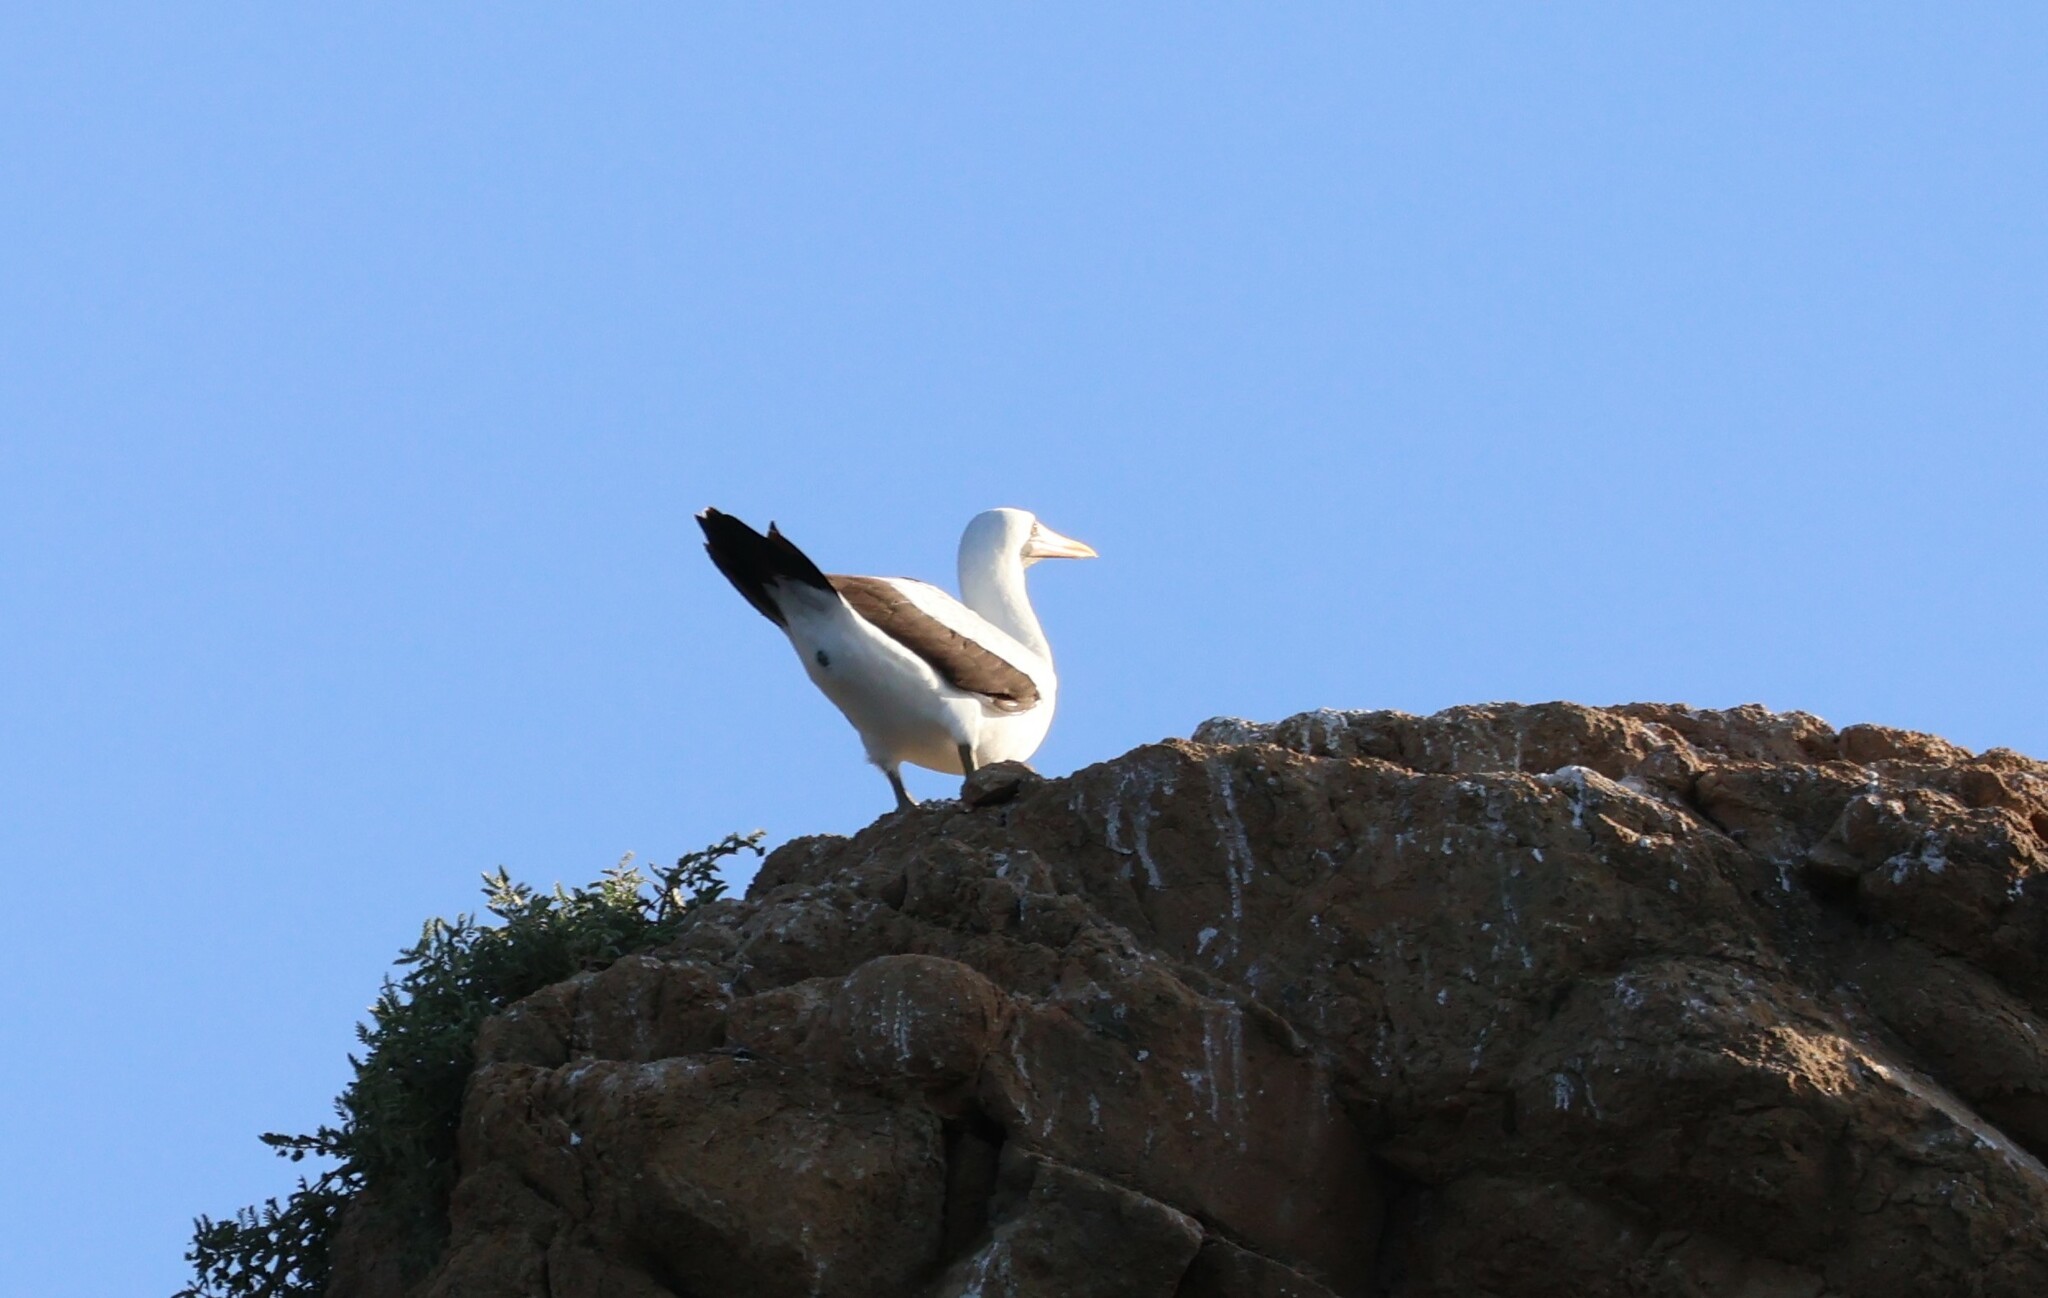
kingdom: Animalia
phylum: Chordata
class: Aves
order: Suliformes
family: Sulidae
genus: Sula
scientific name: Sula granti
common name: Nazca booby
